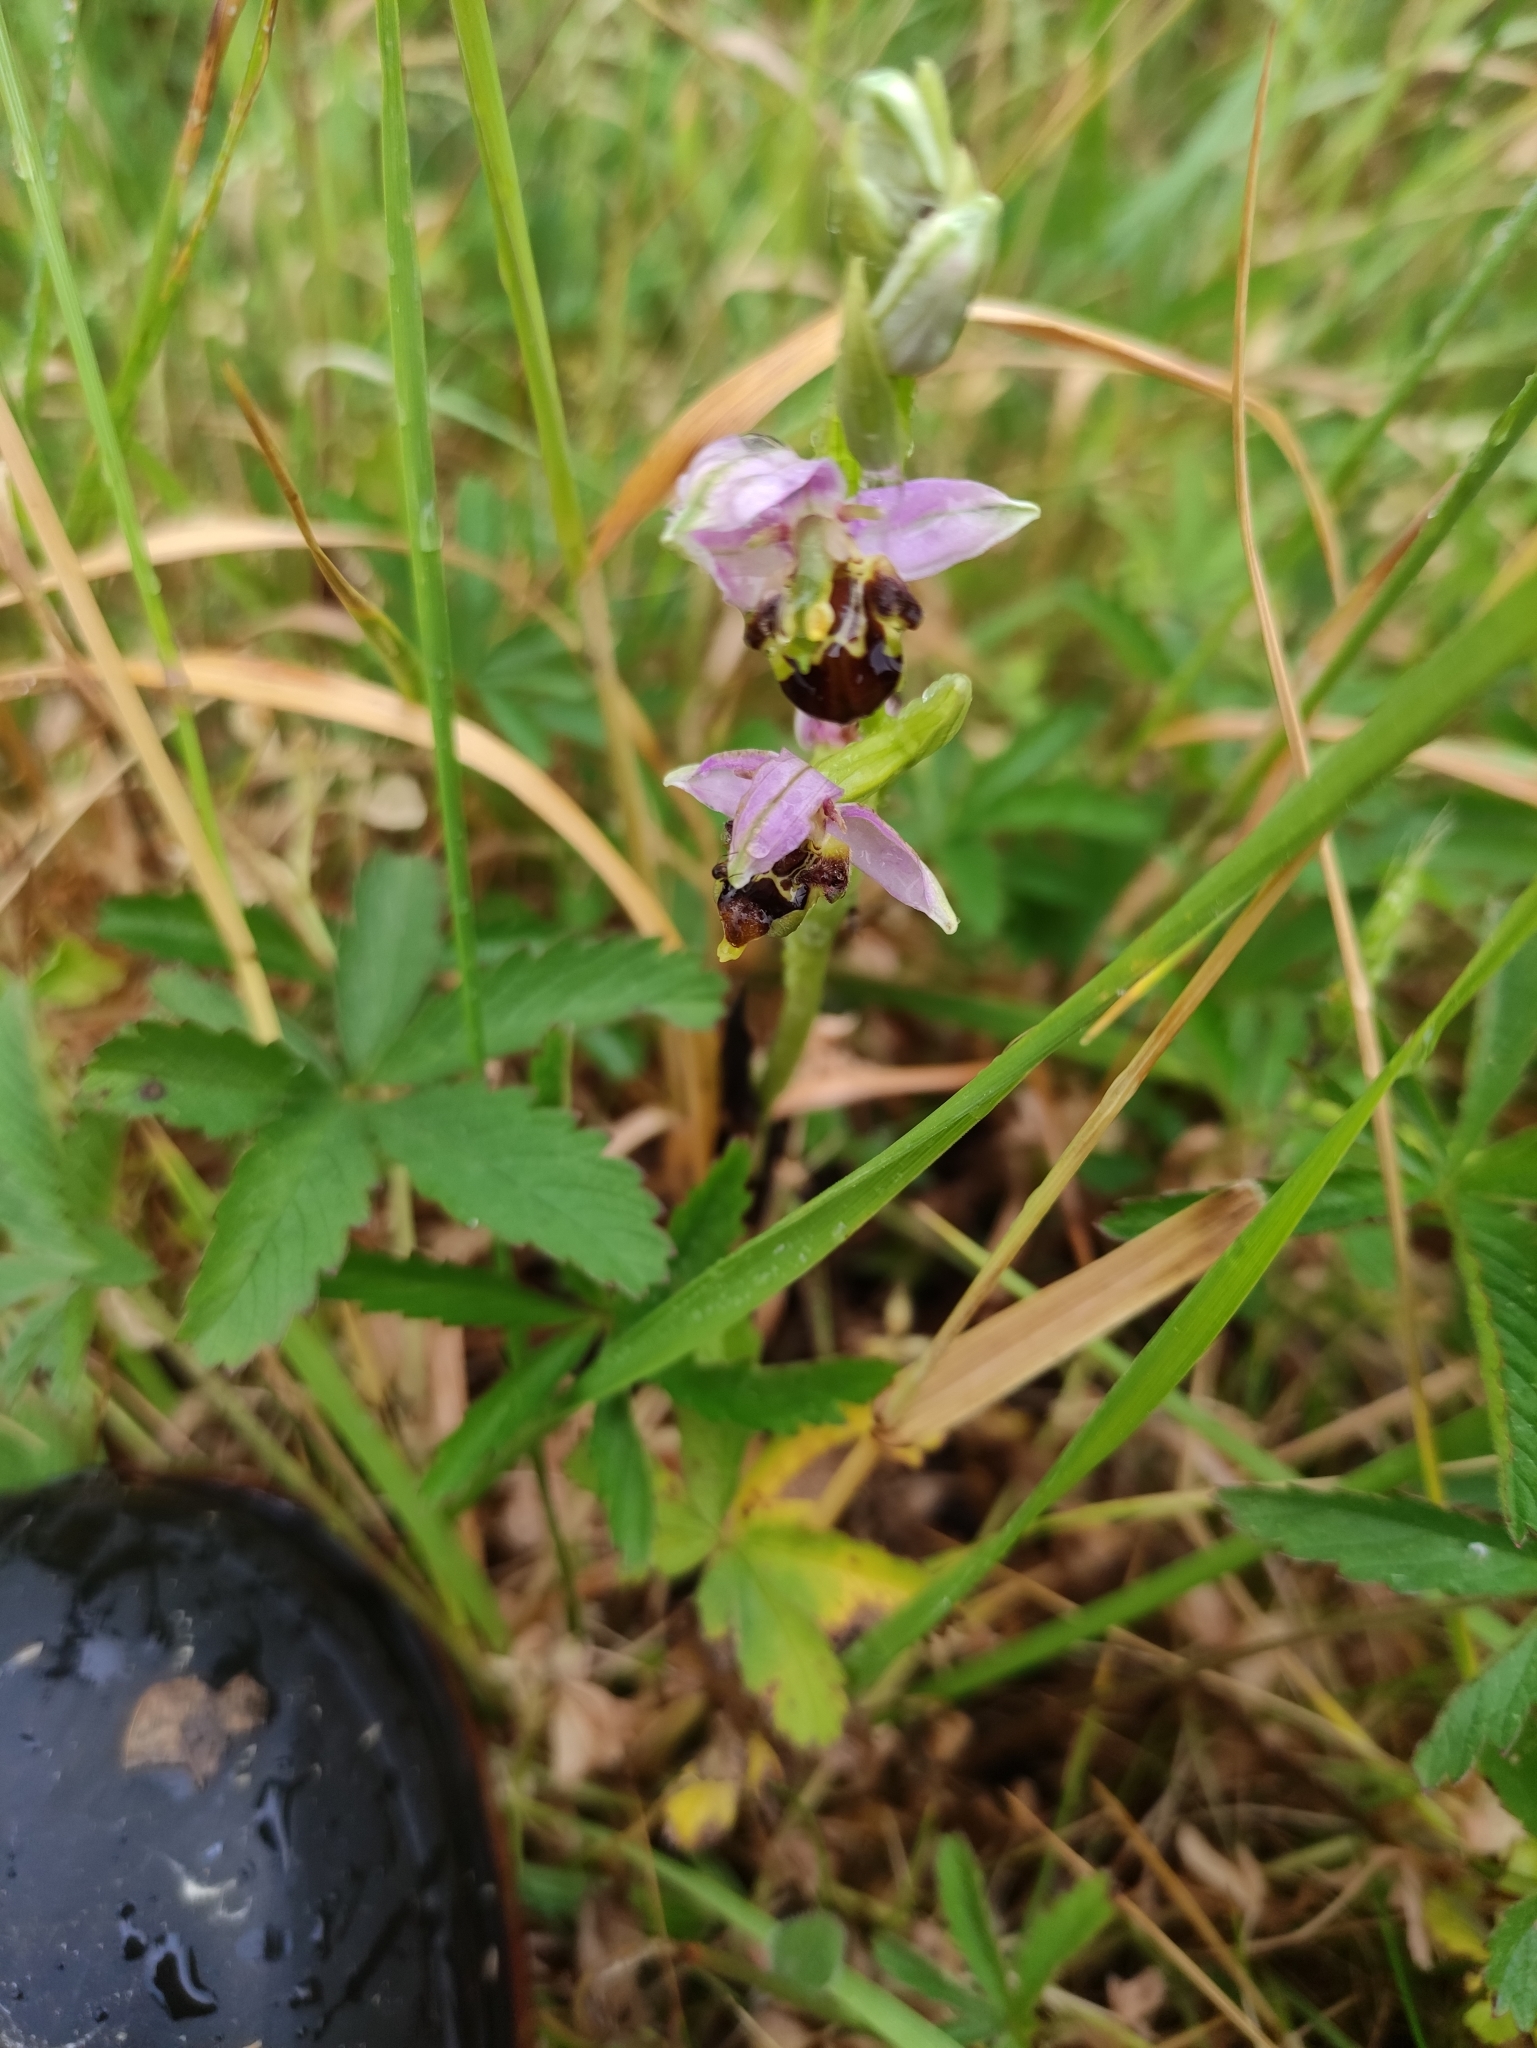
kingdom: Plantae
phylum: Tracheophyta
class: Liliopsida
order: Asparagales
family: Orchidaceae
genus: Ophrys
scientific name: Ophrys apifera
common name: Bee orchid
